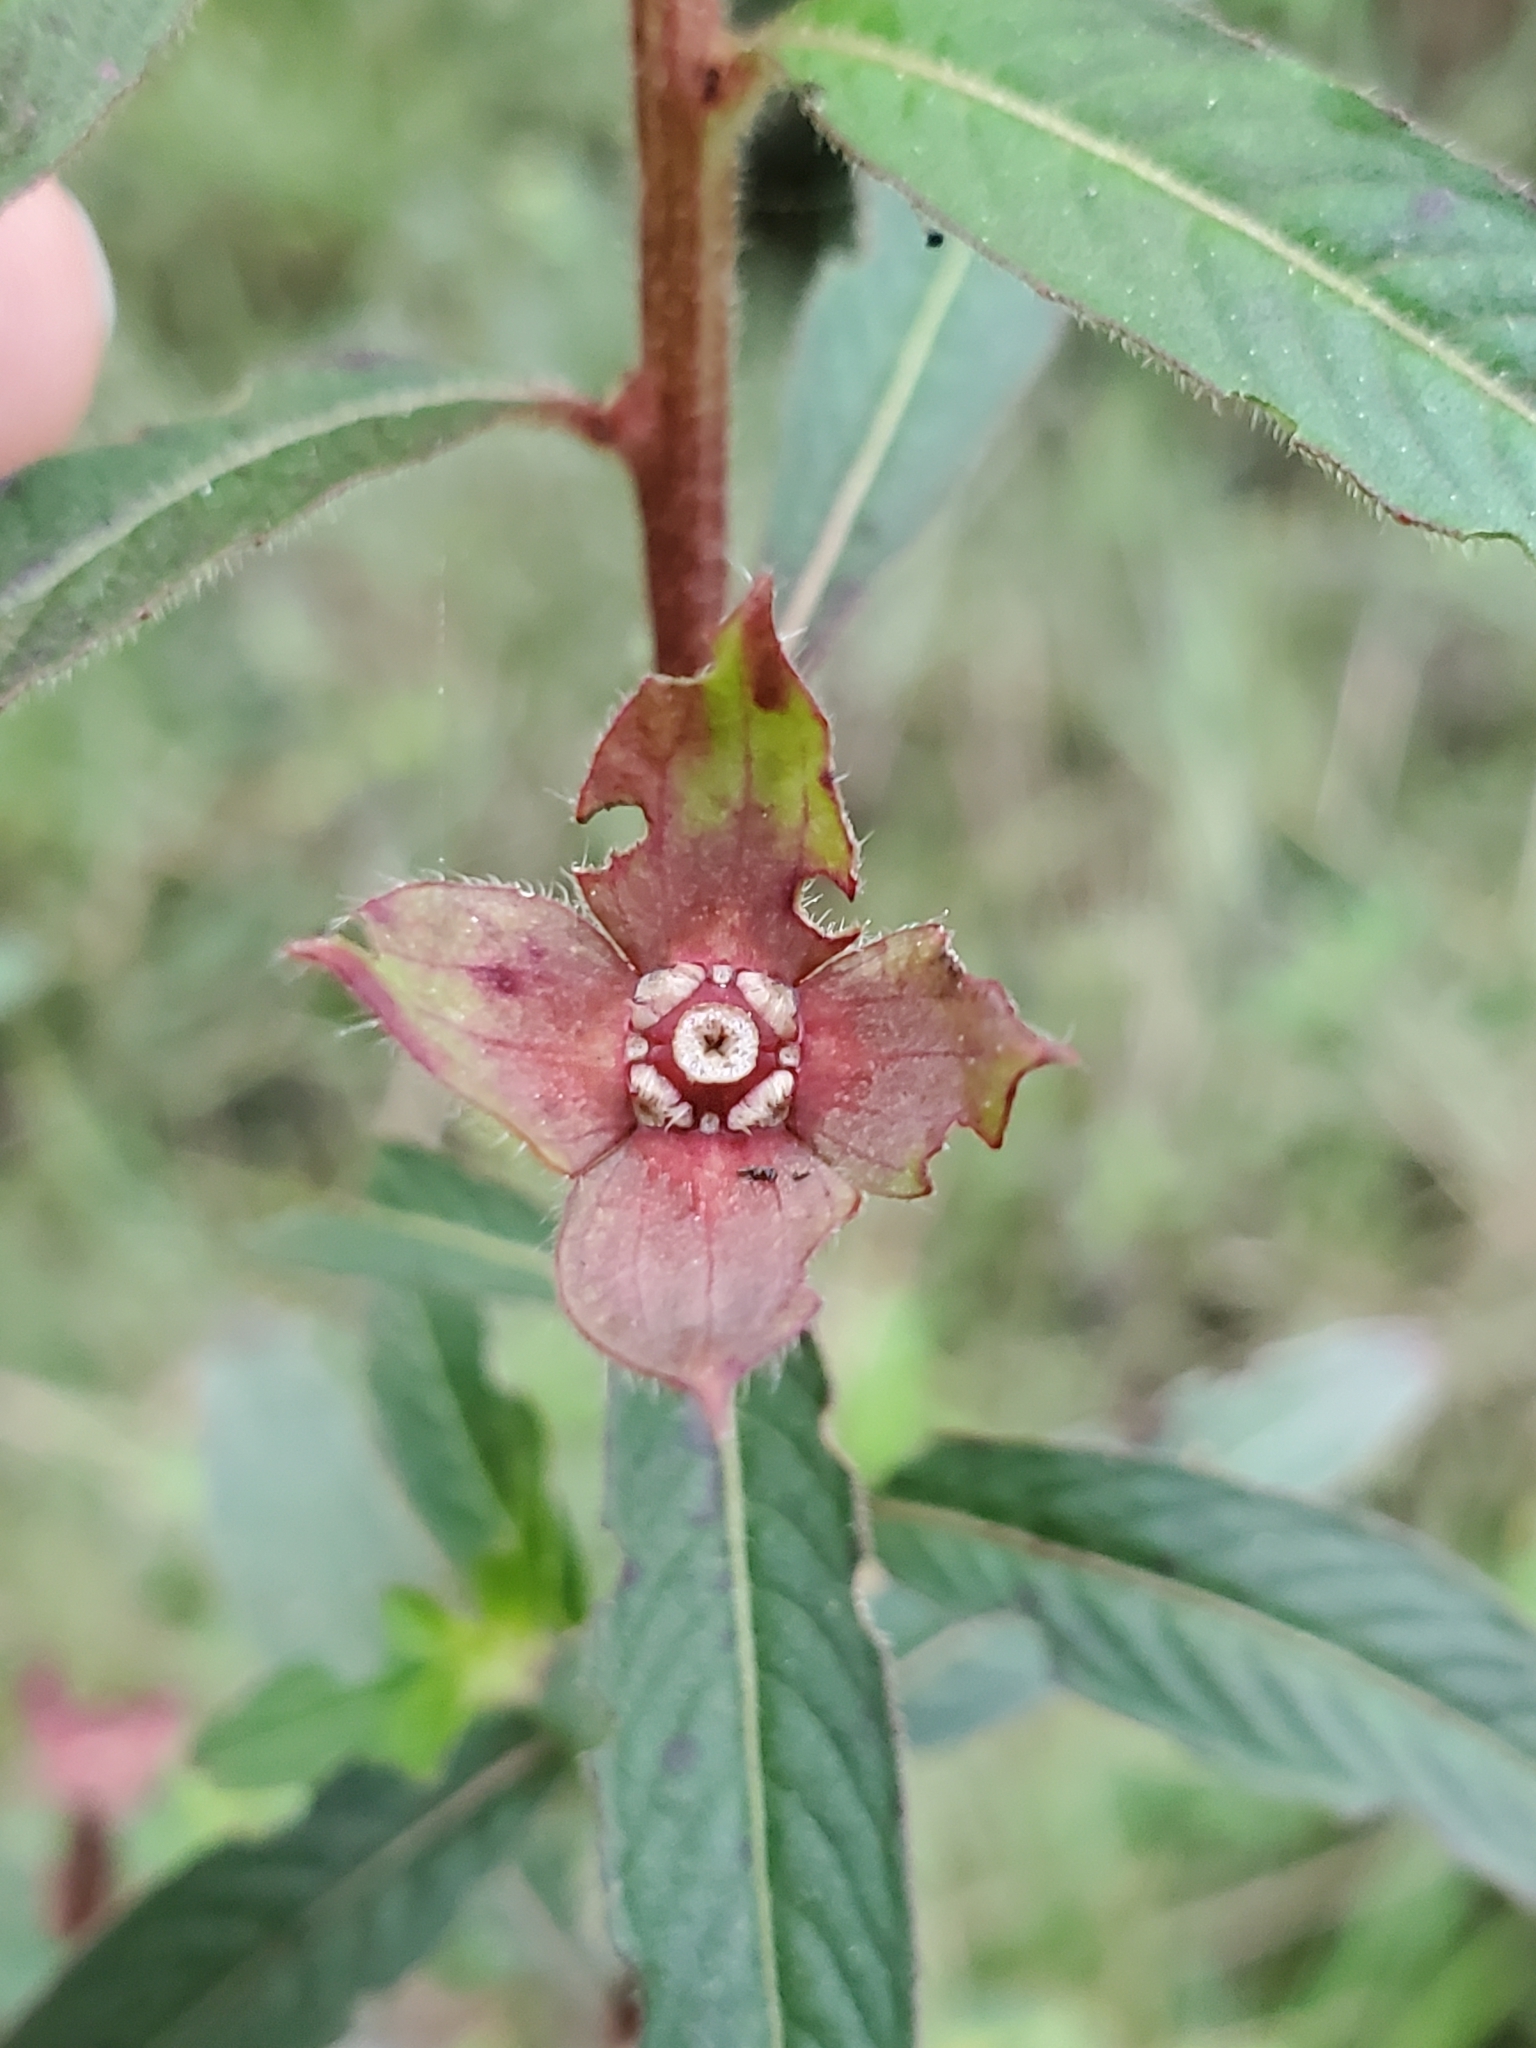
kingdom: Plantae
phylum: Tracheophyta
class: Magnoliopsida
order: Myrtales
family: Onagraceae
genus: Ludwigia
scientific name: Ludwigia octovalvis
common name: Water-primrose
